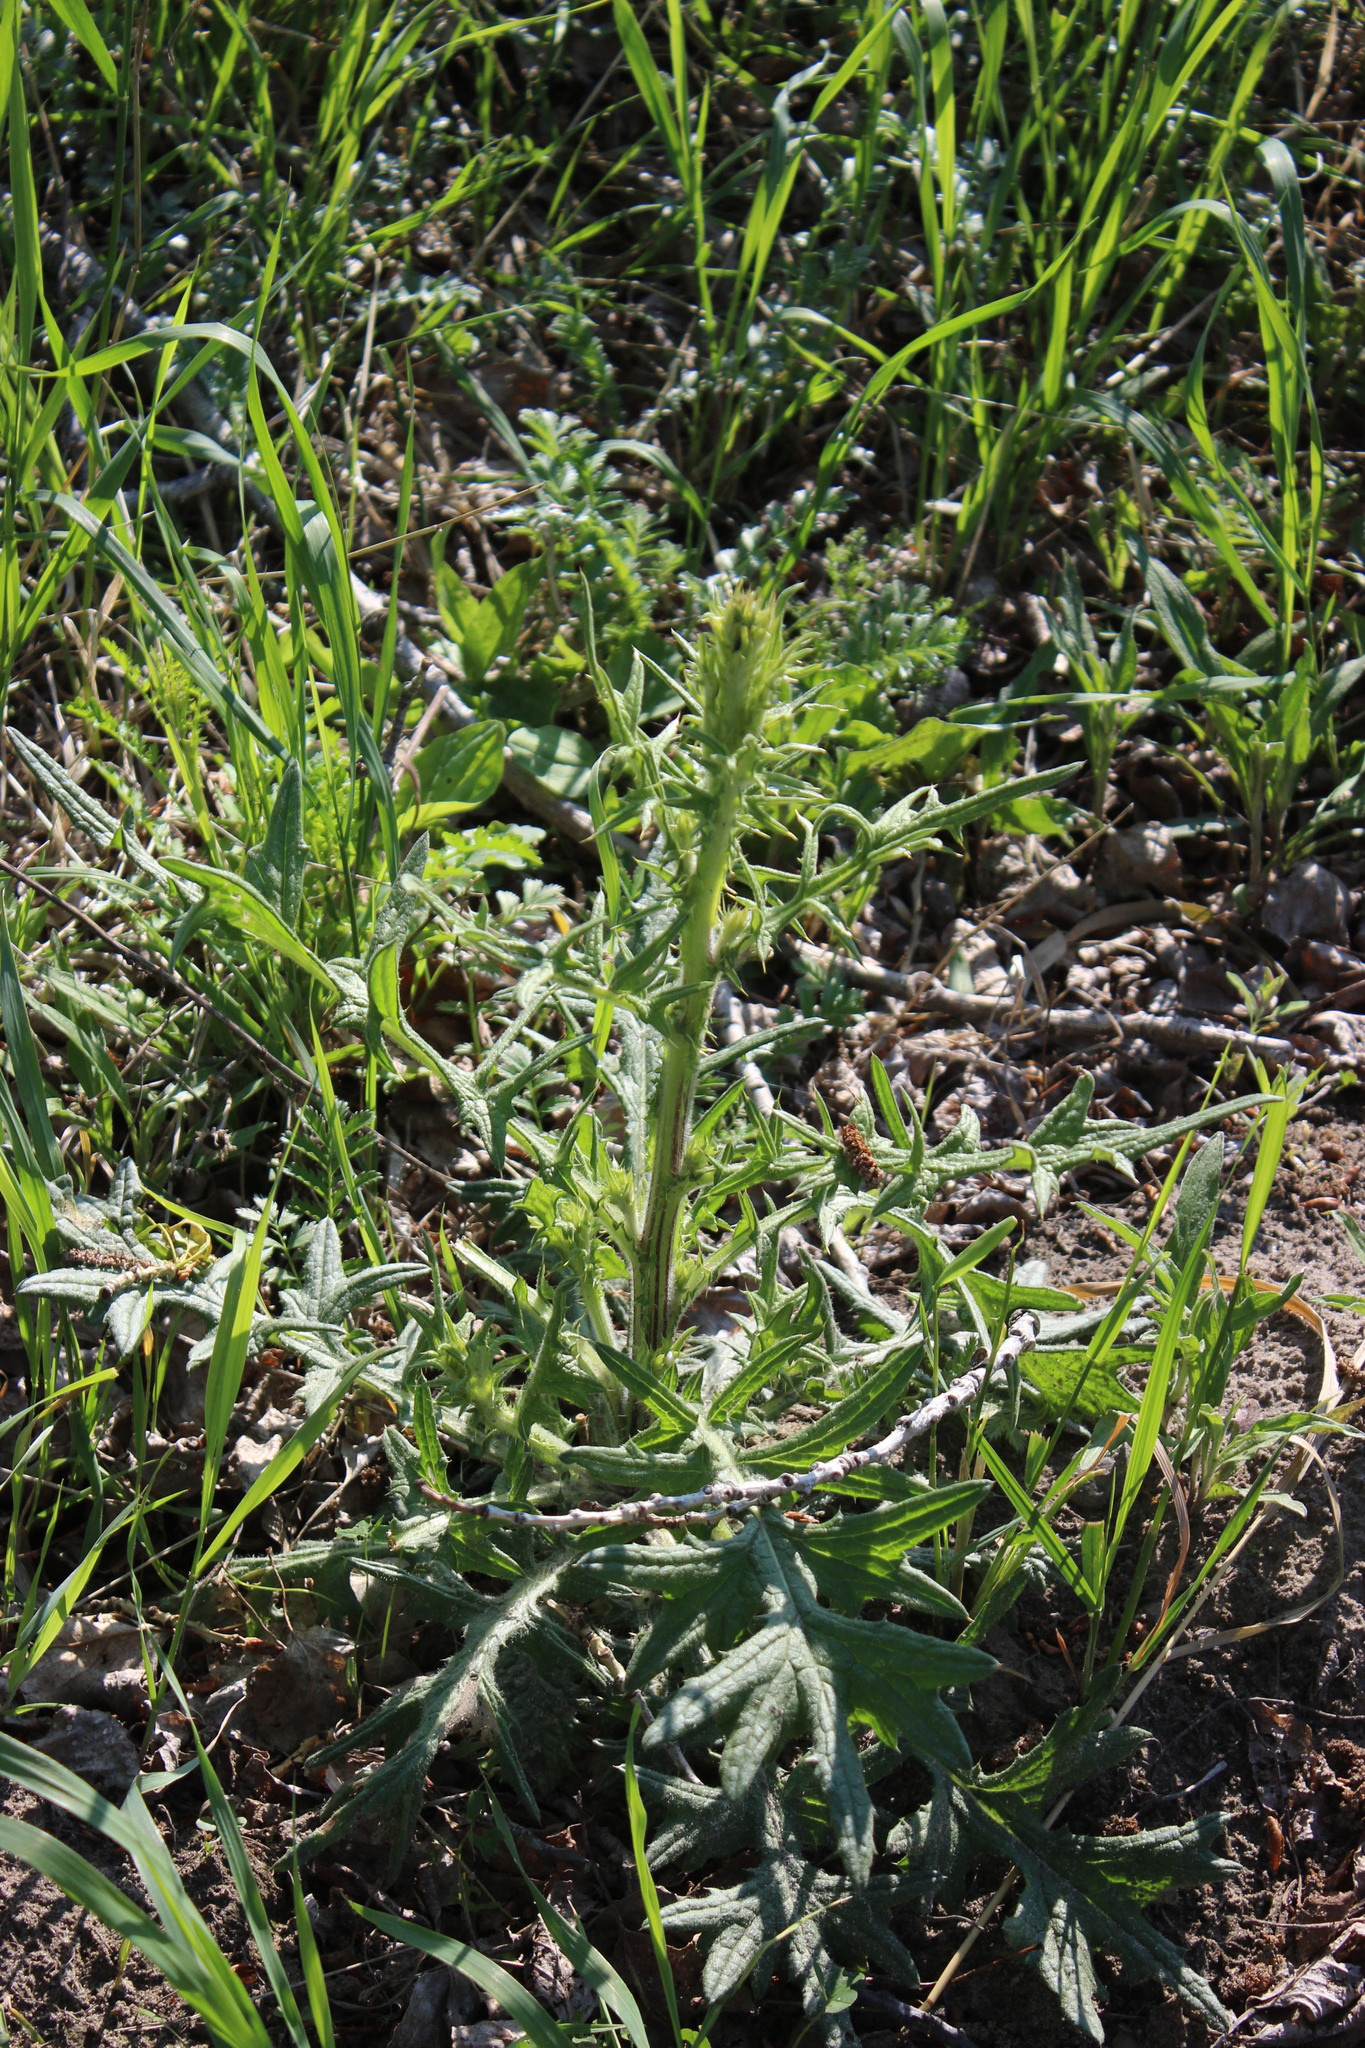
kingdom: Plantae
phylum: Tracheophyta
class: Magnoliopsida
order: Asterales
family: Asteraceae
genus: Cirsium
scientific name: Cirsium vulgare
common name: Bull thistle
